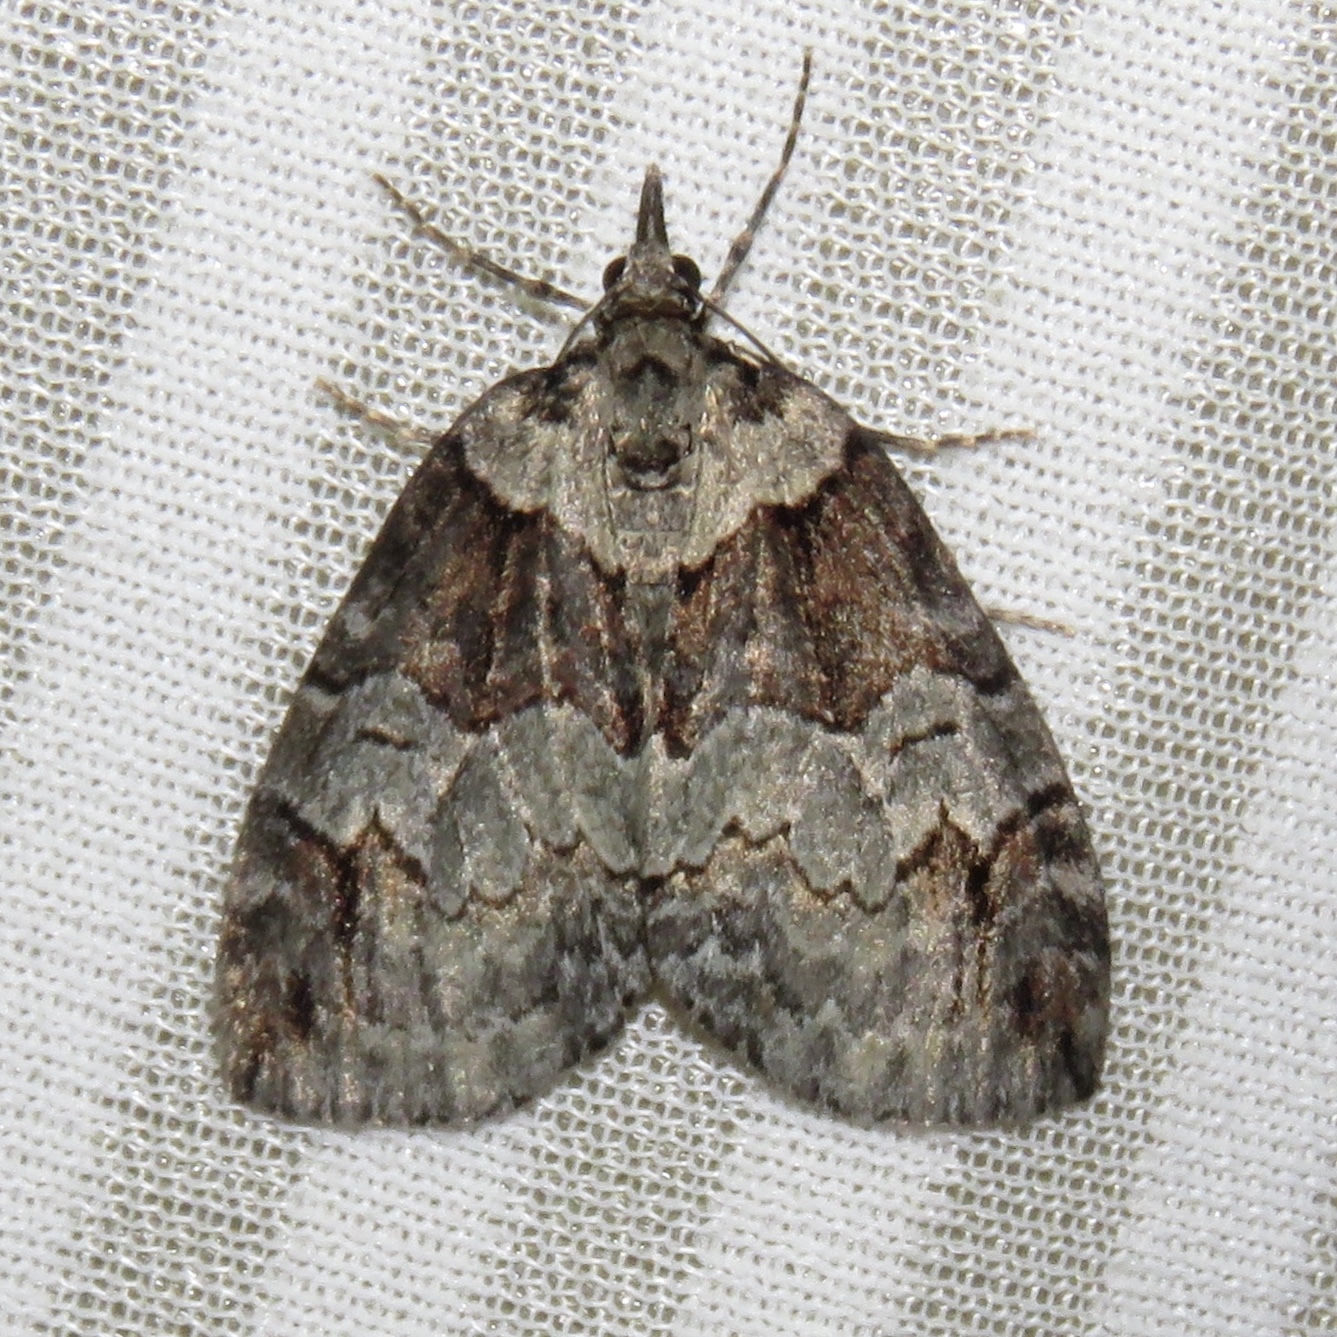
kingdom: Animalia
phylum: Arthropoda
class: Insecta
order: Lepidoptera
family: Geometridae
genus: Hydriomena
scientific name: Hydriomena ruberata
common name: Ruddy highflyer
